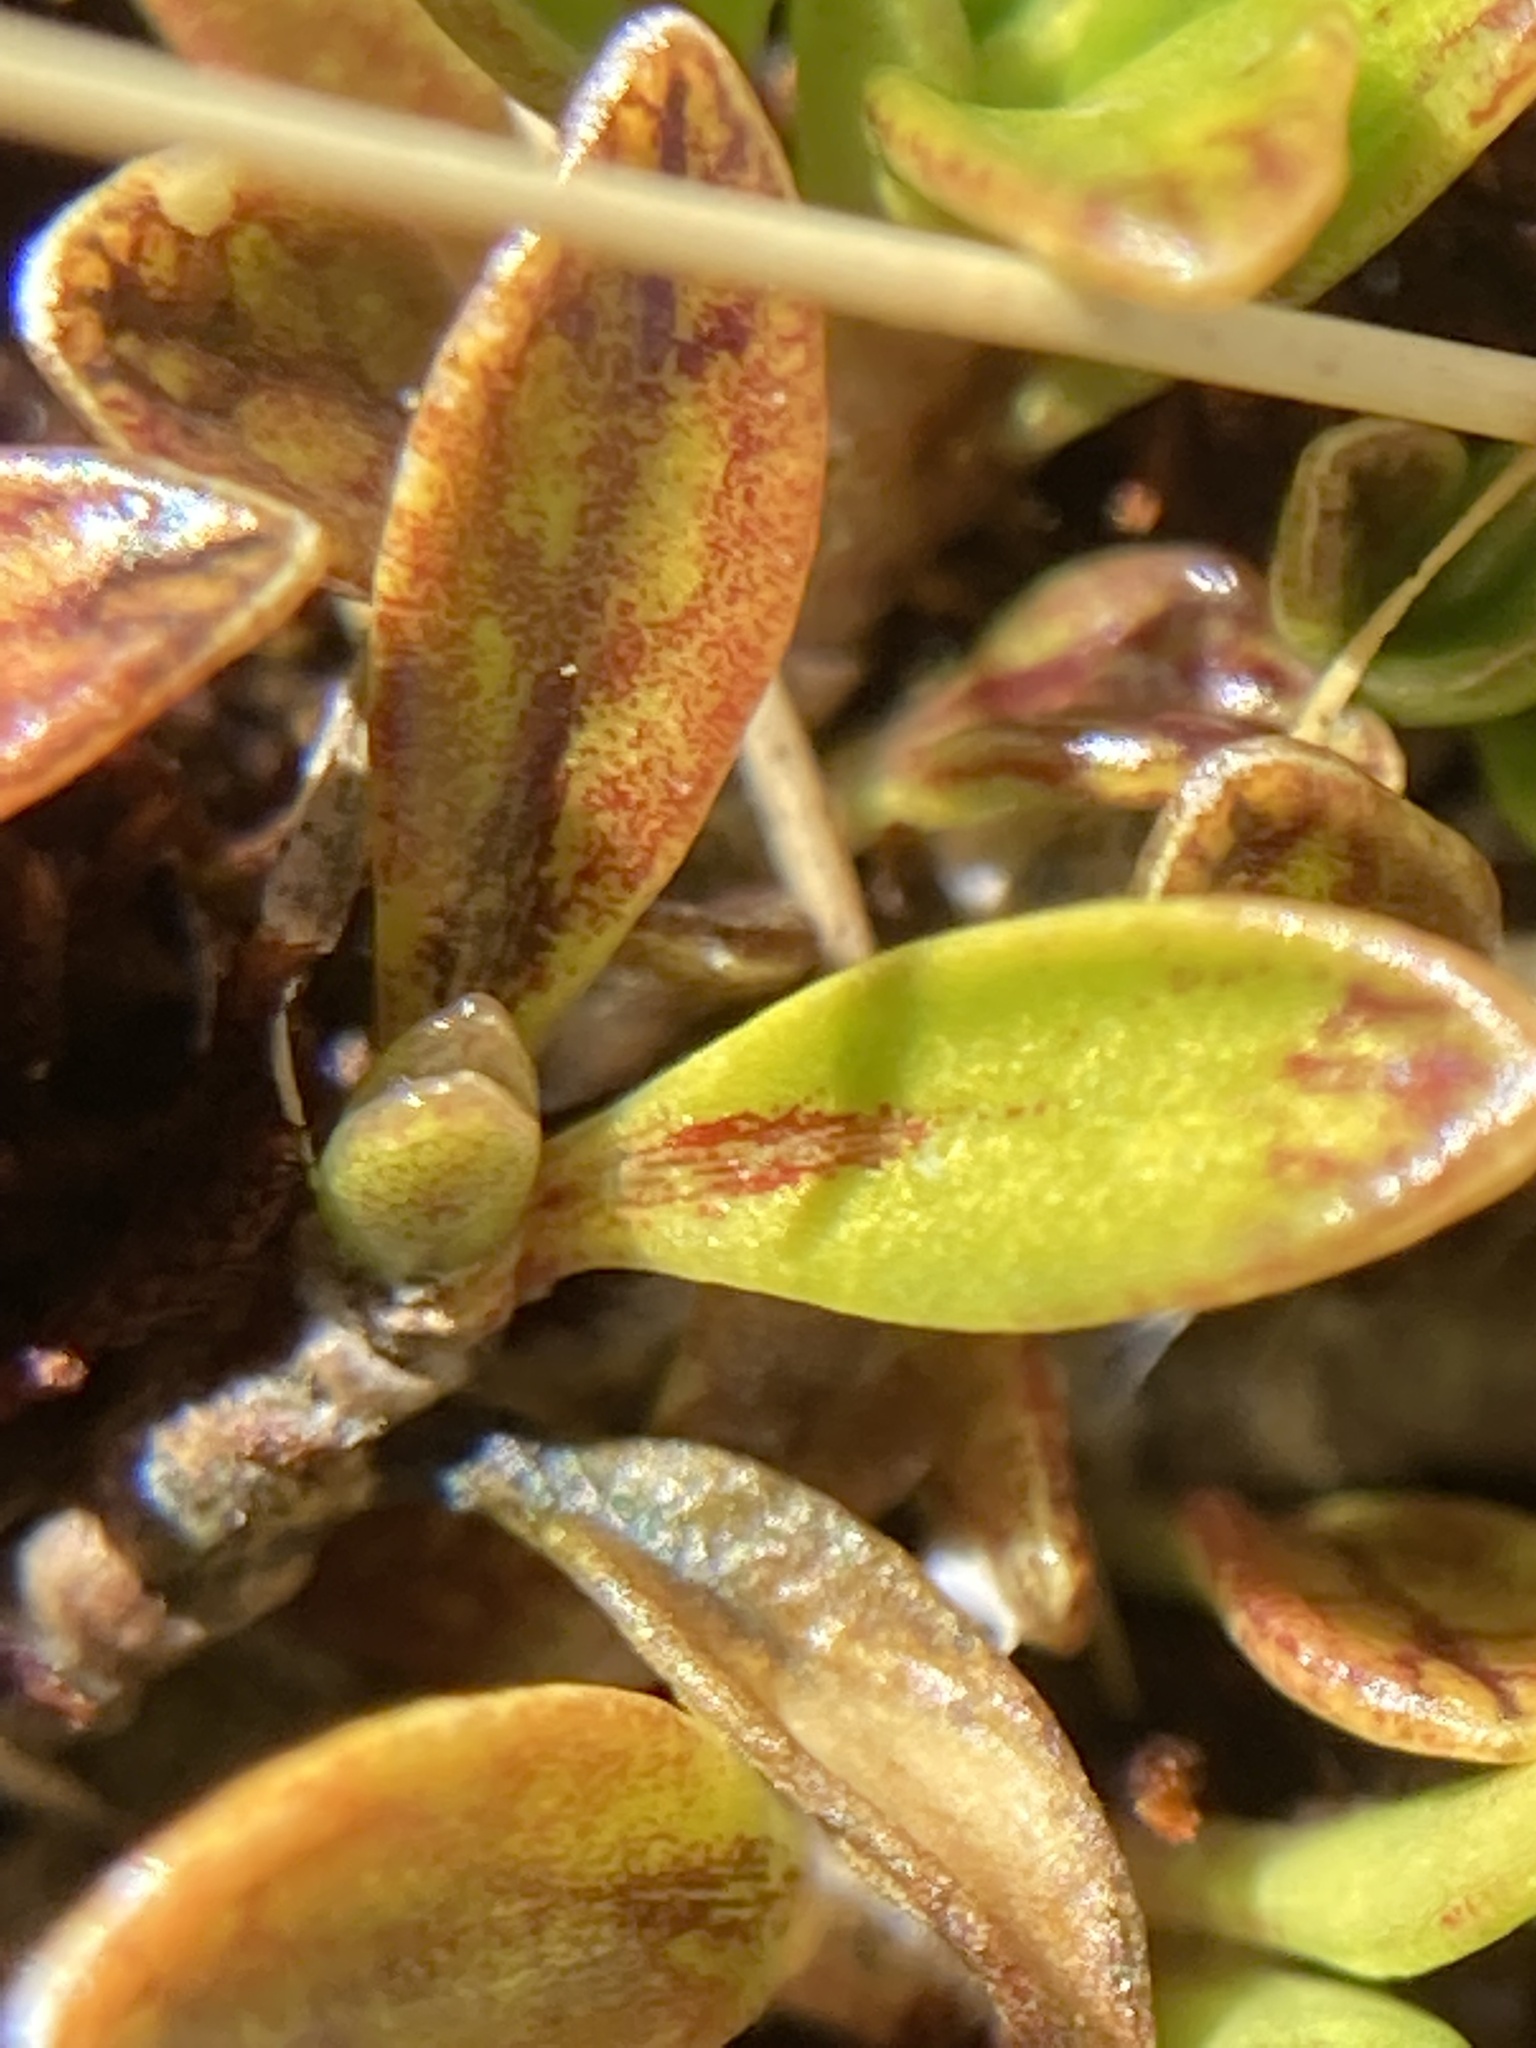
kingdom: Plantae
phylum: Tracheophyta
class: Magnoliopsida
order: Gentianales
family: Rubiaceae
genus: Coprosma
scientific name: Coprosma perpusilla
